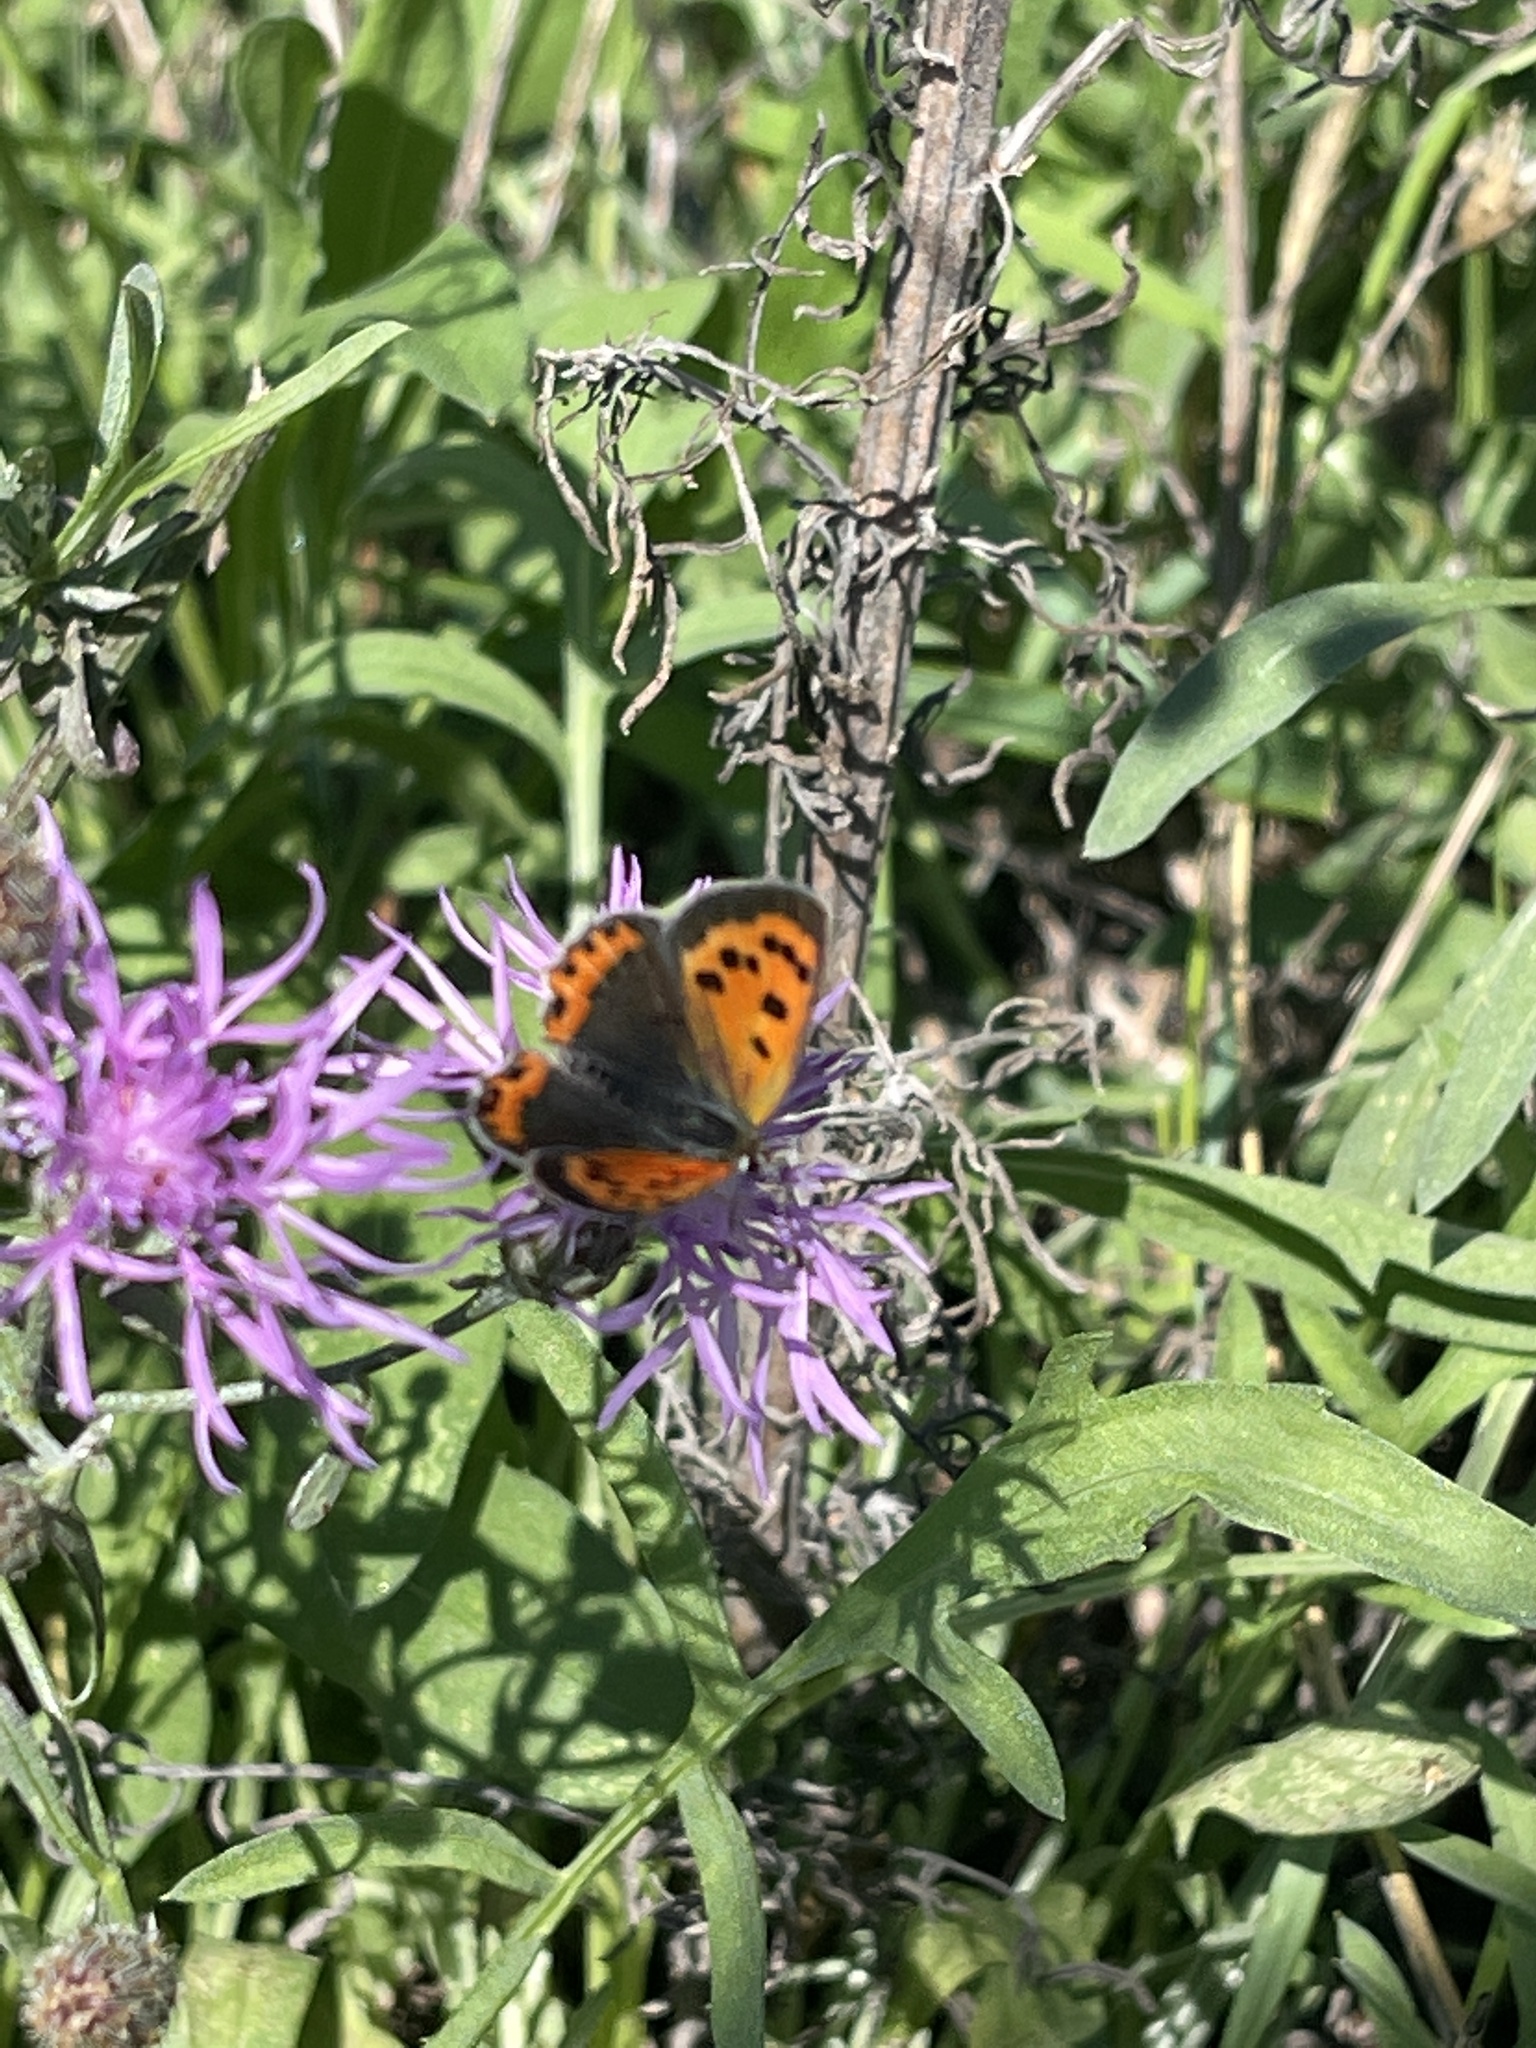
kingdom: Animalia
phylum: Arthropoda
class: Insecta
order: Lepidoptera
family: Lycaenidae
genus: Lycaena
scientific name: Lycaena hypophlaeas
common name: American copper
